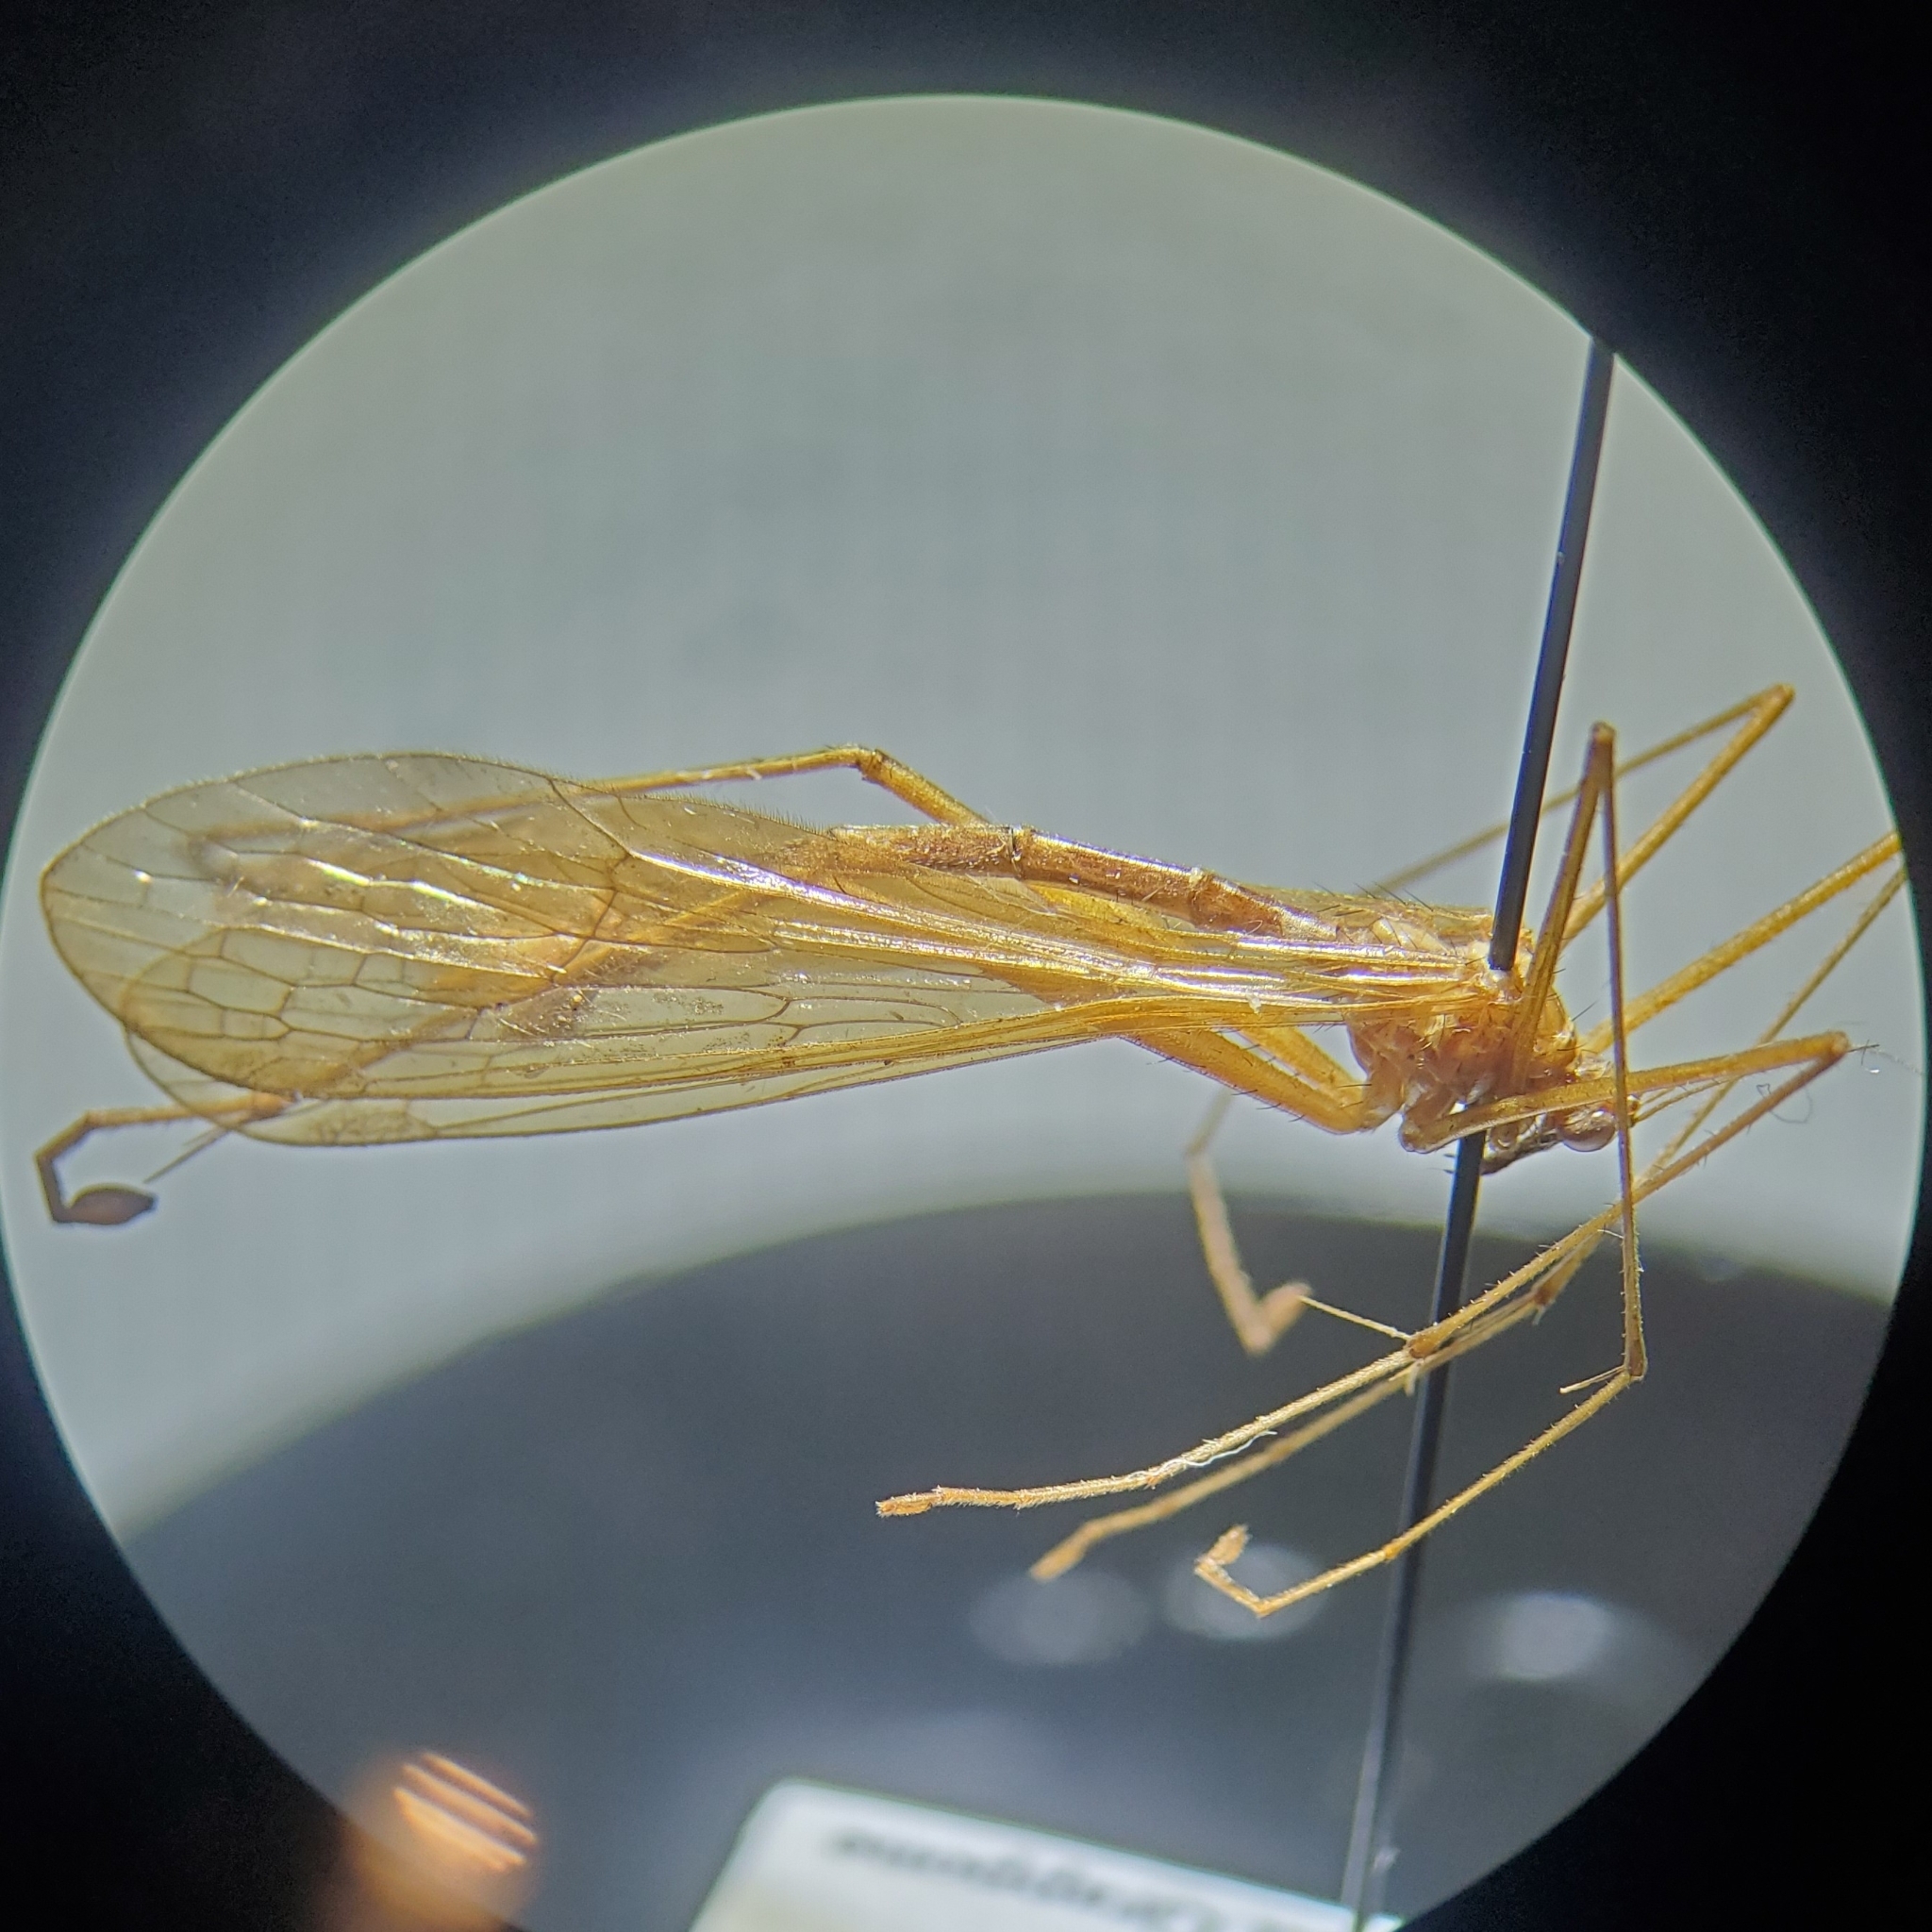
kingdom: Animalia
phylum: Arthropoda
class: Insecta
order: Mecoptera
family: Bittacidae
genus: Bittacus
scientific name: Bittacus pilicornis
